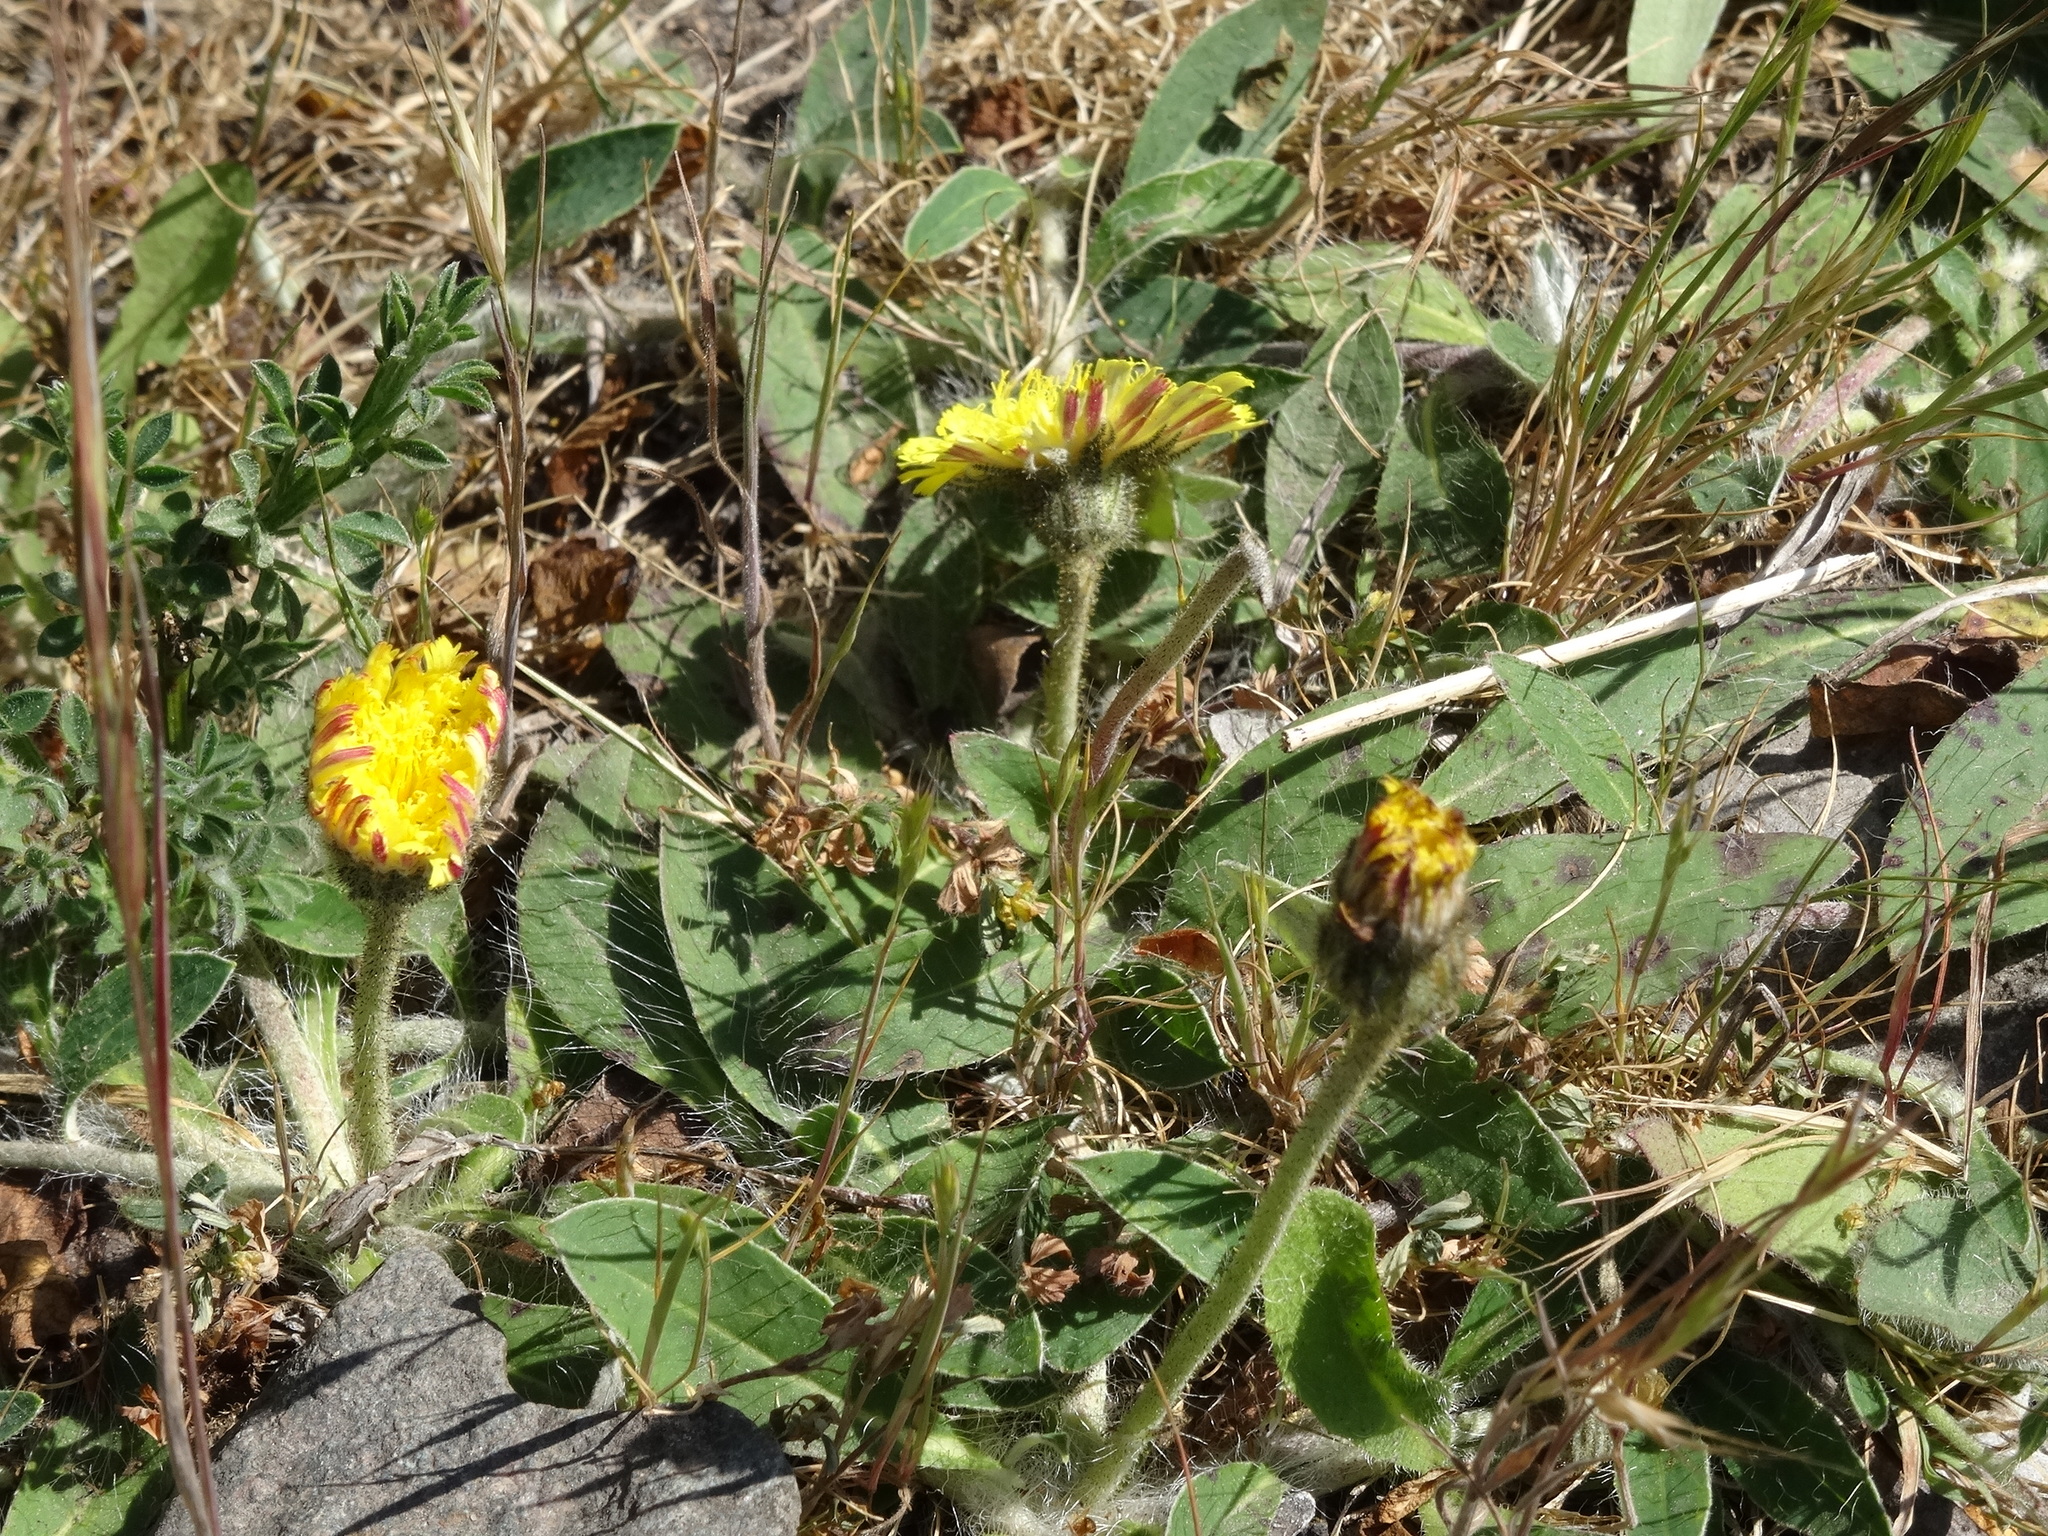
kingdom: Plantae
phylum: Tracheophyta
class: Magnoliopsida
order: Asterales
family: Asteraceae
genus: Pilosella
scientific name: Pilosella officinarum
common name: Mouse-ear hawkweed
